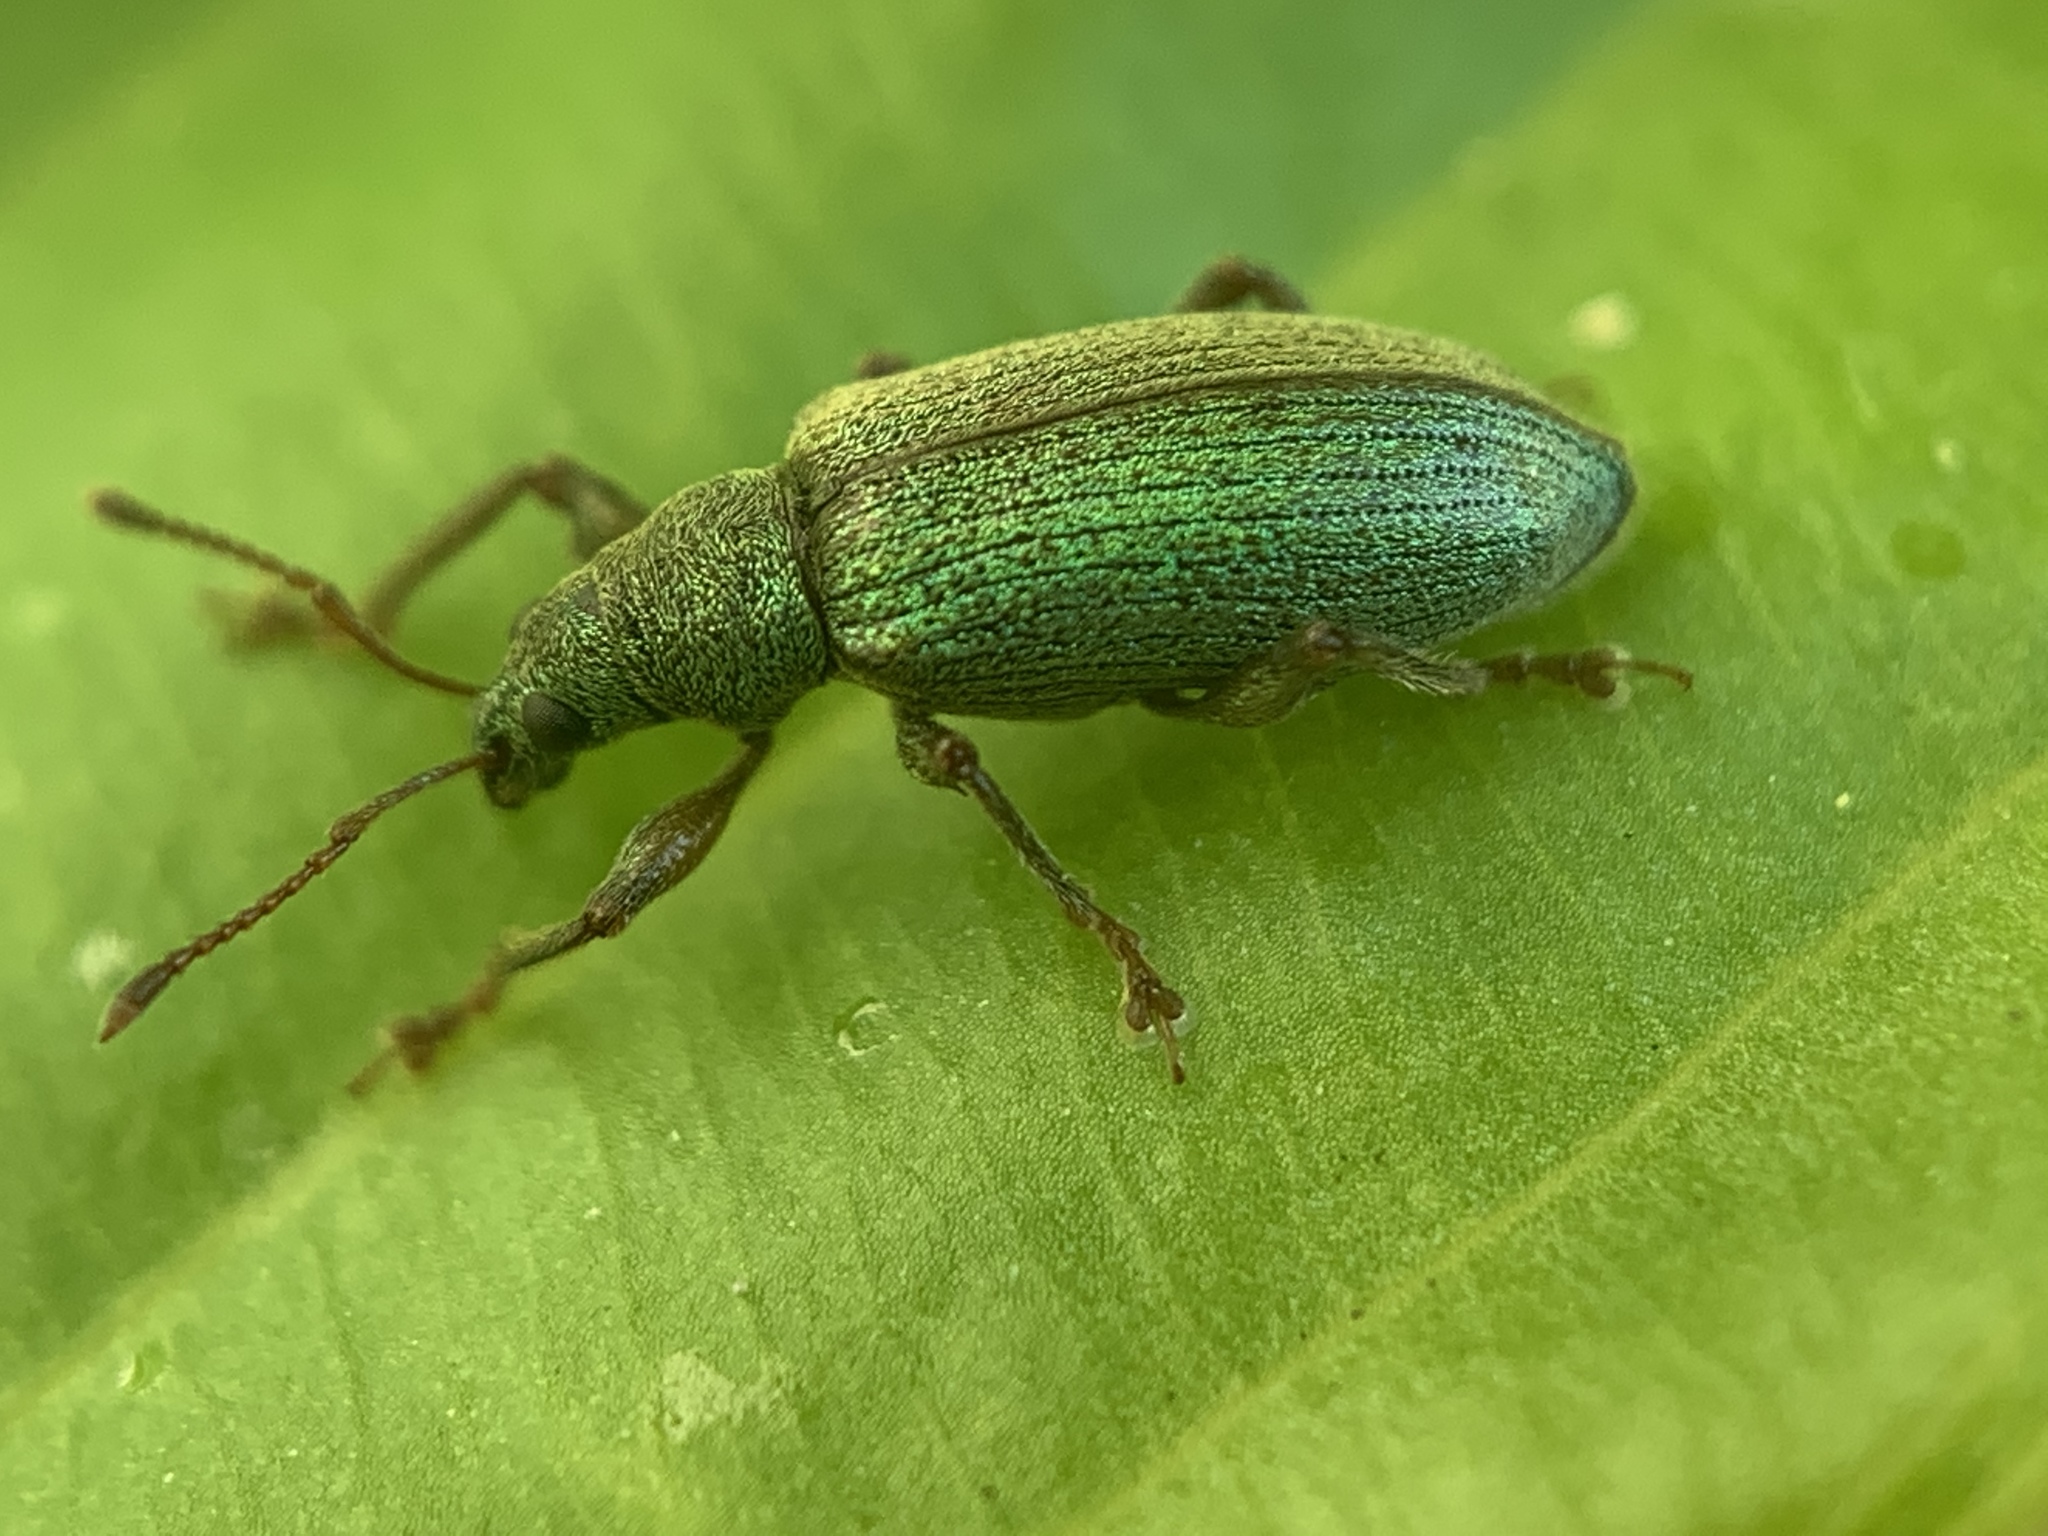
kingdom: Animalia
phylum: Arthropoda
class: Insecta
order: Coleoptera
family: Curculionidae
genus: Parascythopus
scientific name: Parascythopus intrusus
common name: Weevil
